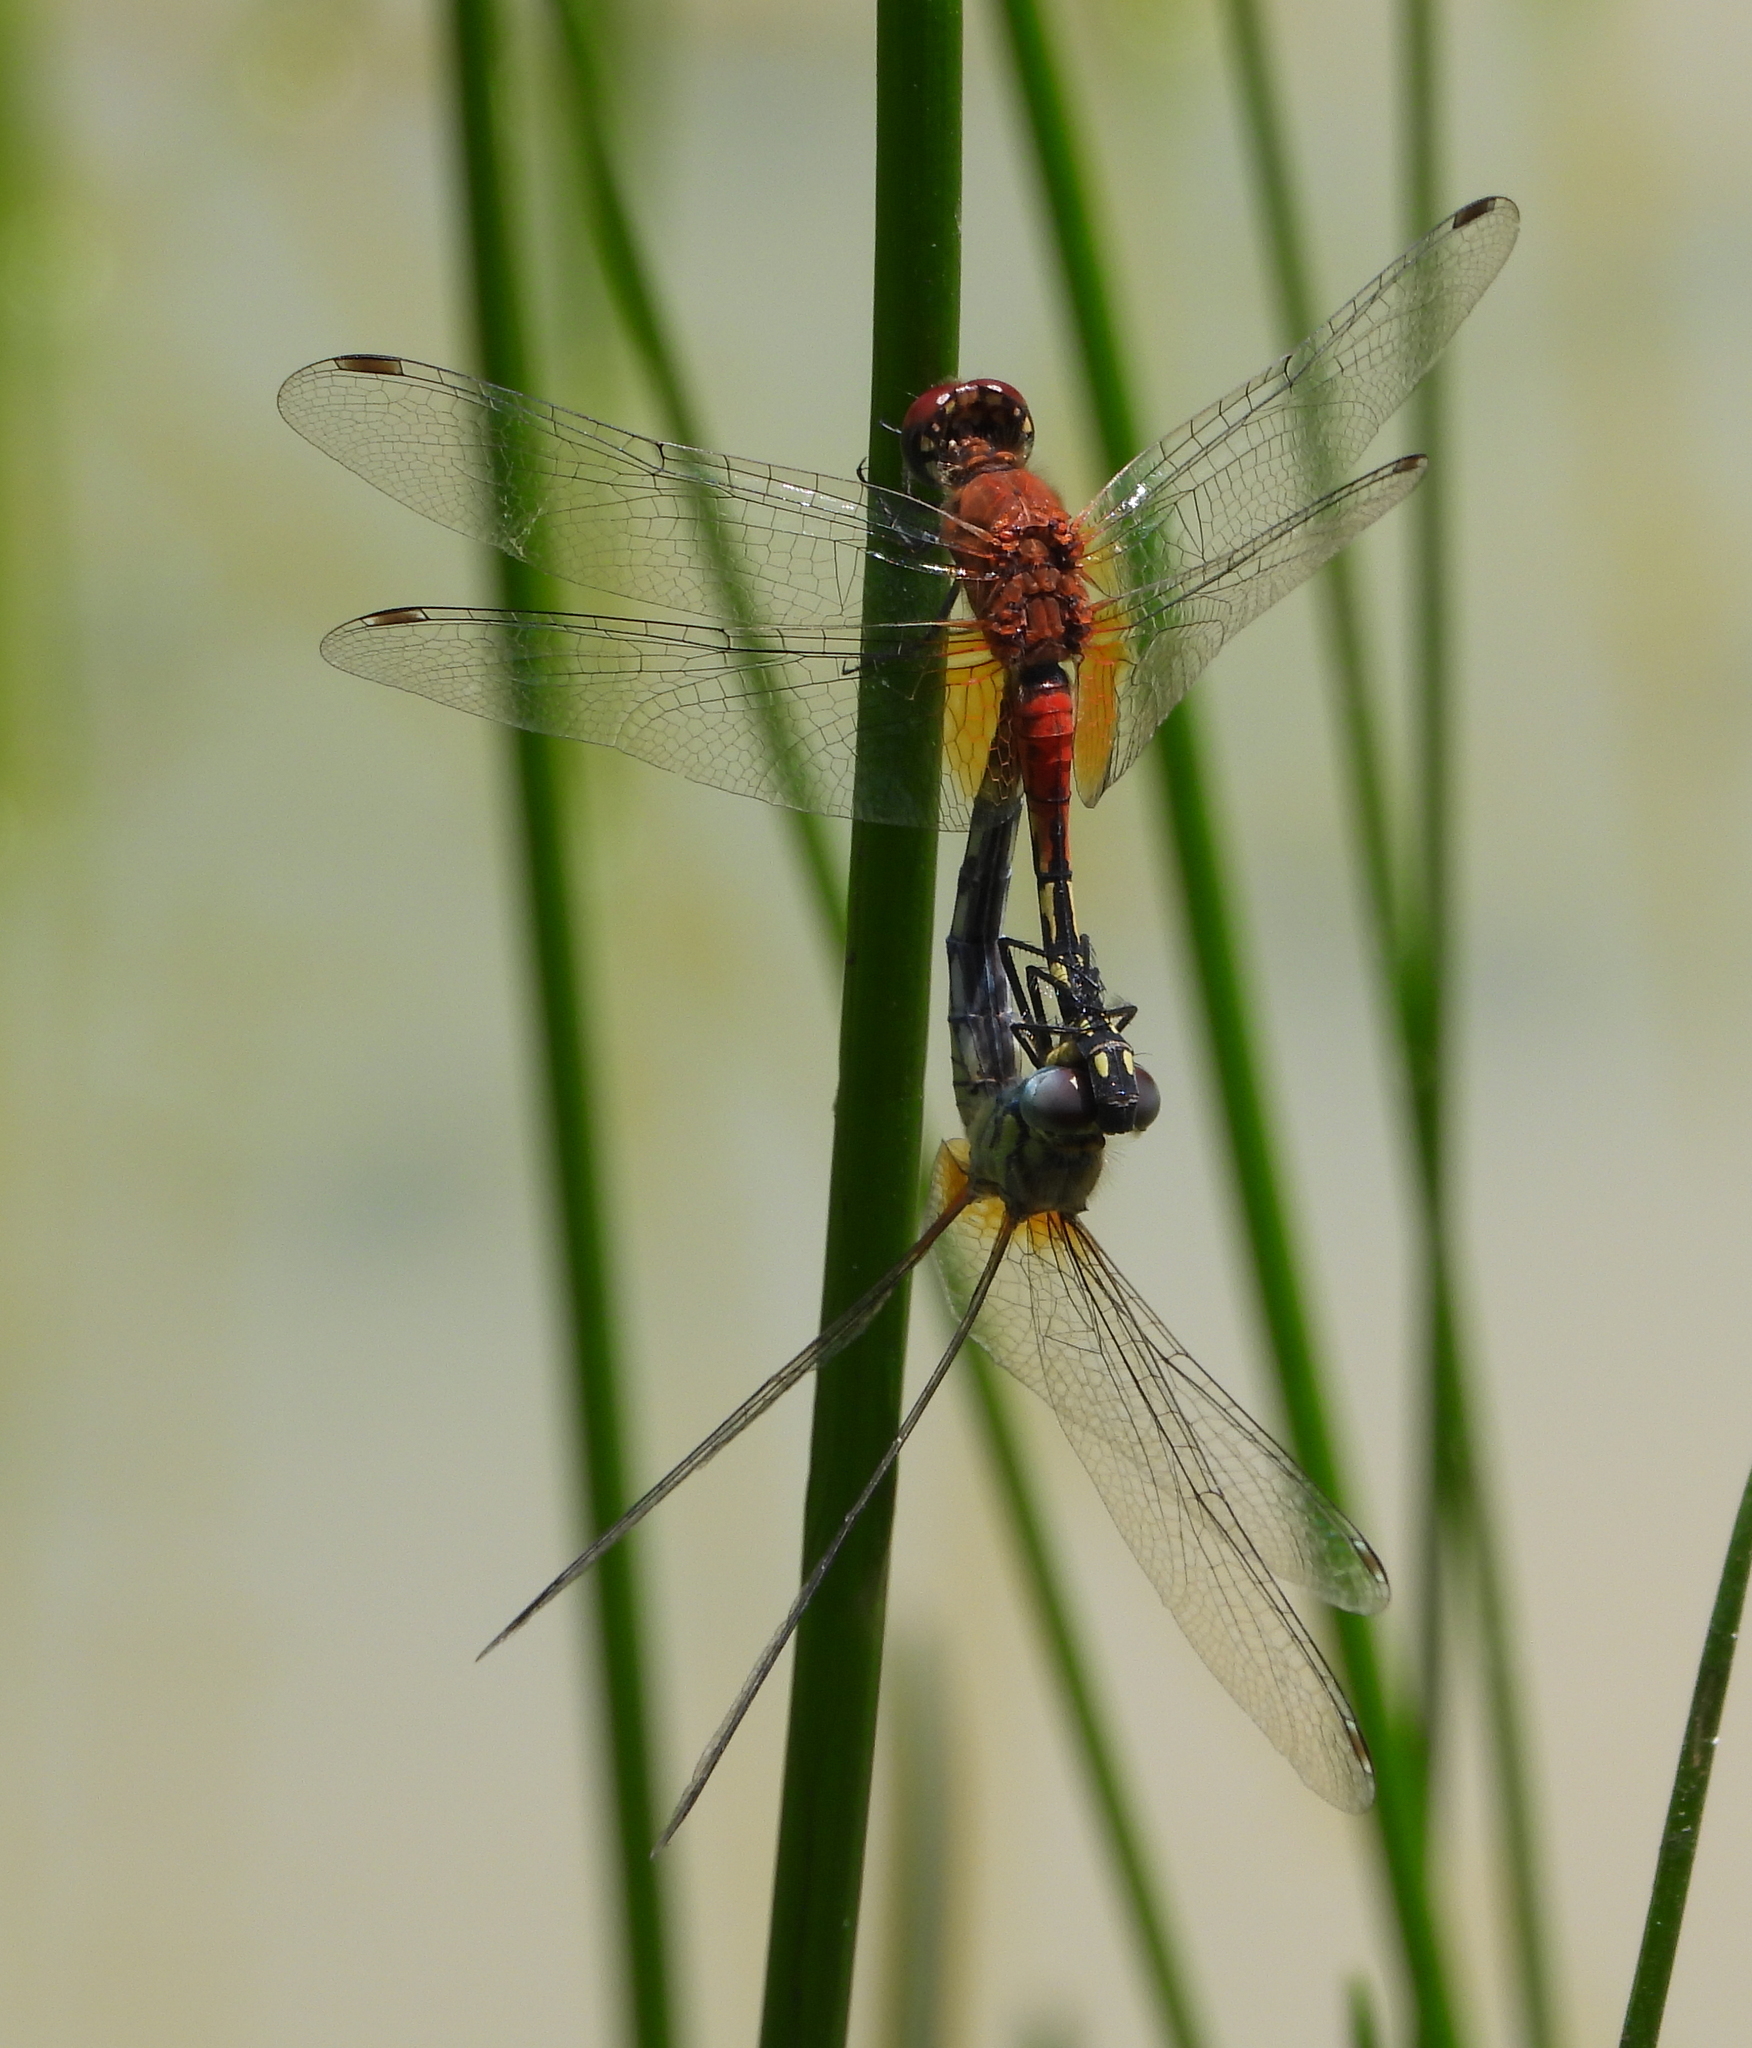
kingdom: Animalia
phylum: Arthropoda
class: Insecta
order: Odonata
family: Libellulidae
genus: Diplacodes
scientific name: Diplacodes luminans
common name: Barbet percher
